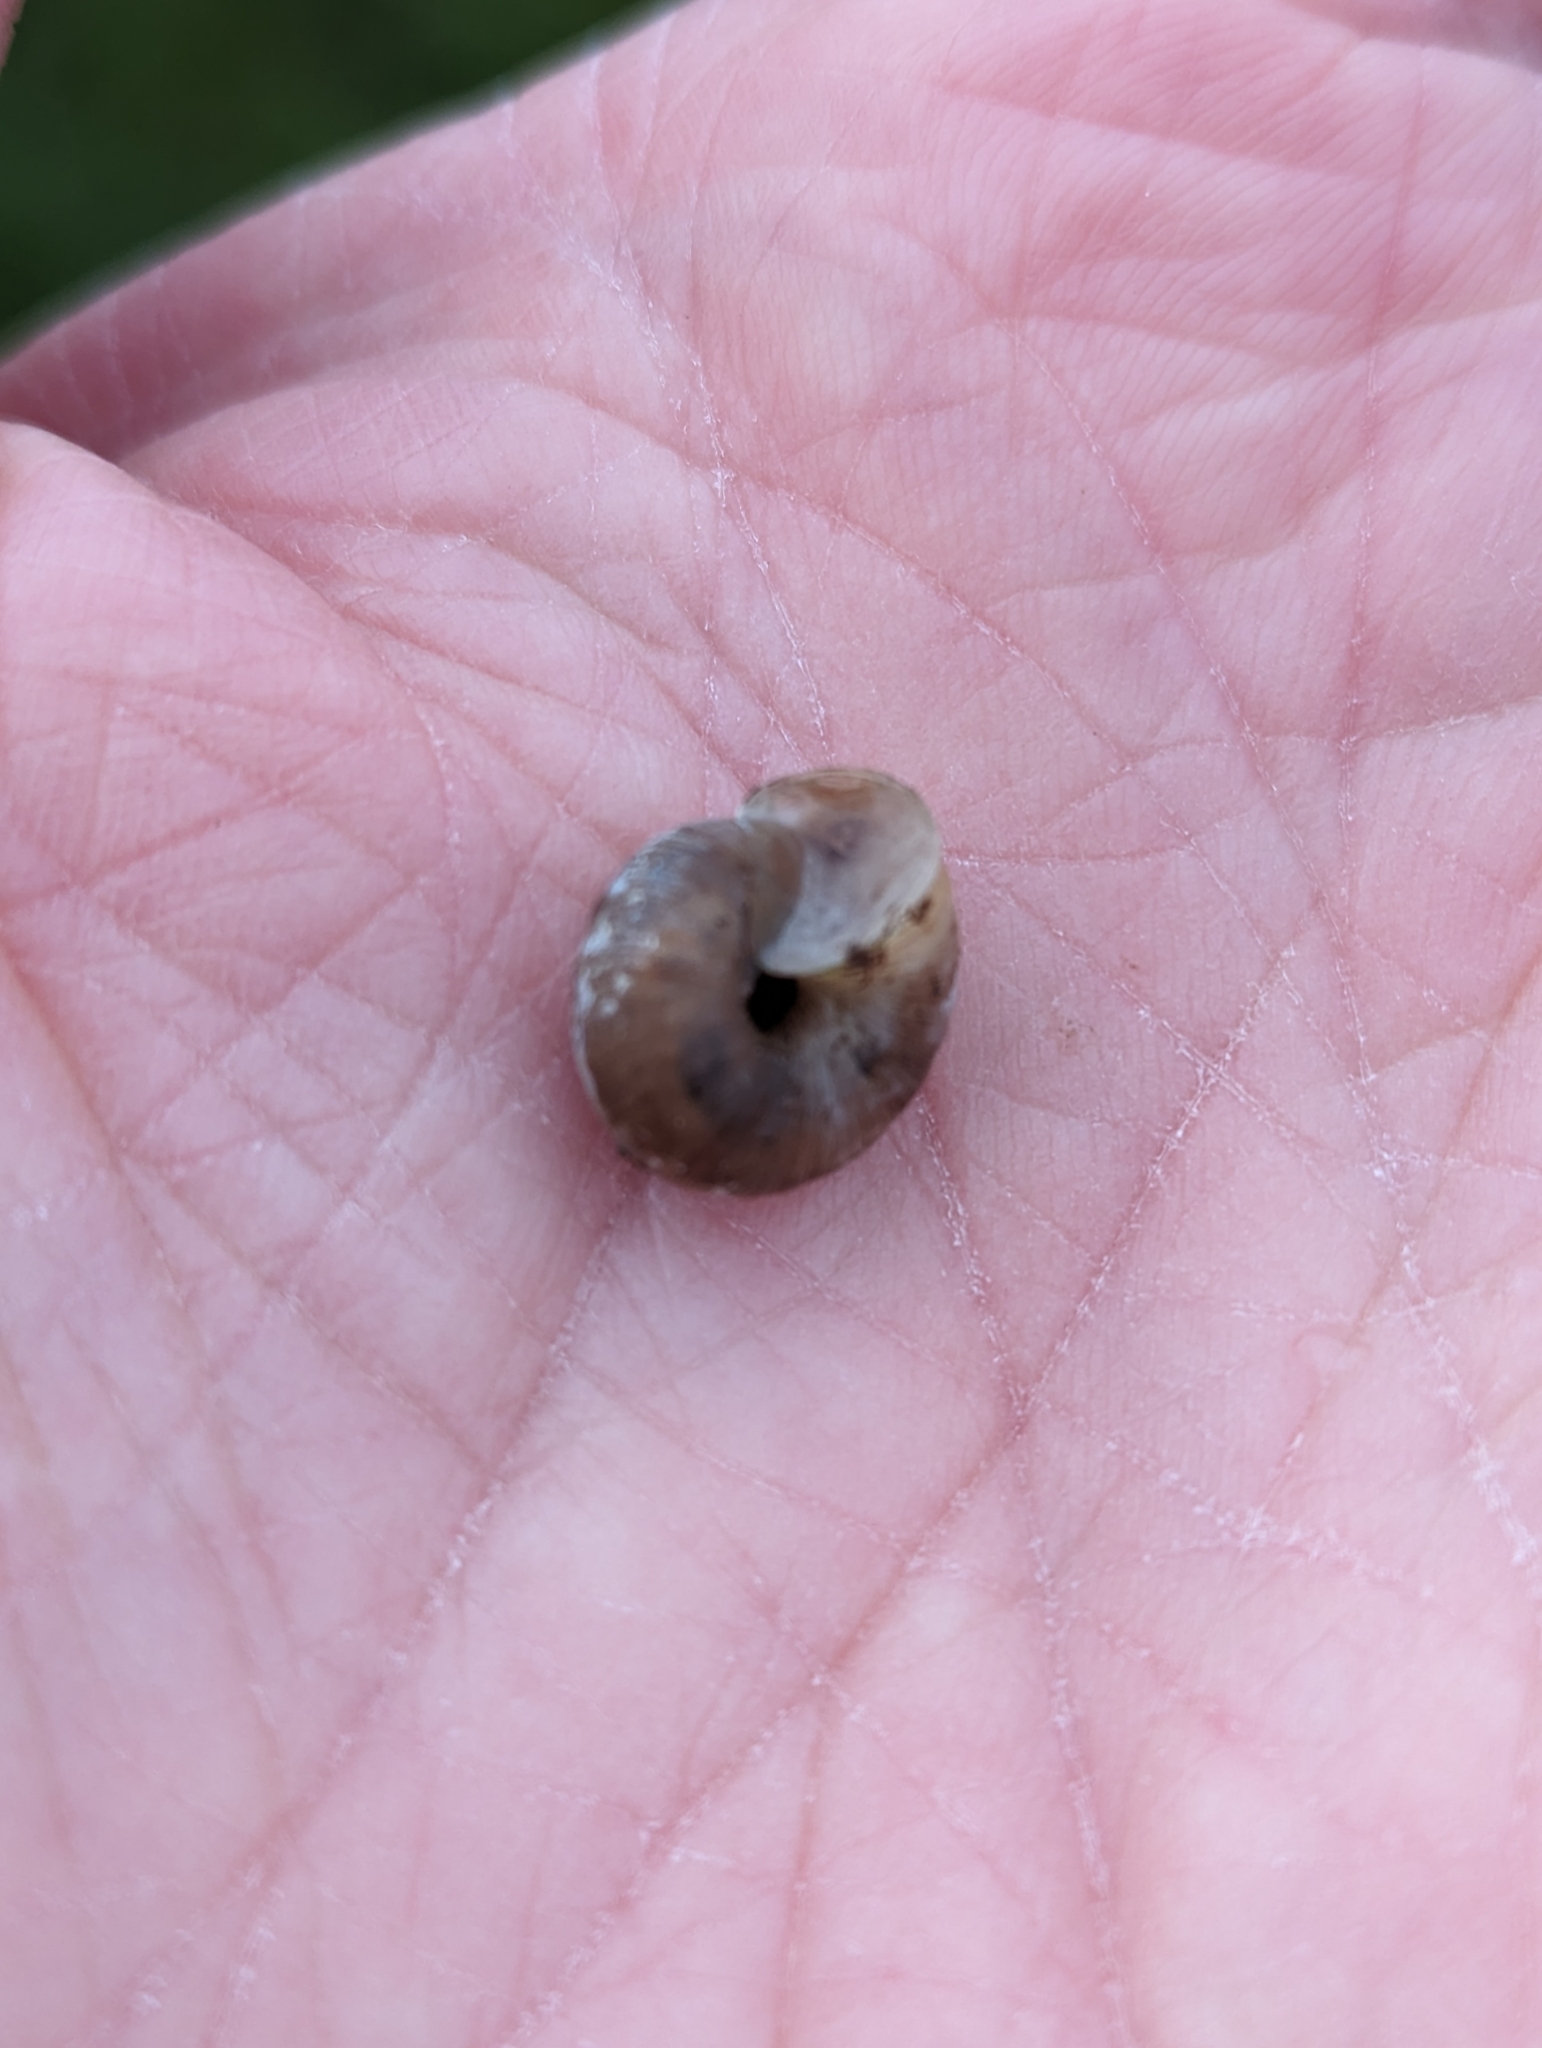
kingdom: Animalia
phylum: Mollusca
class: Gastropoda
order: Stylommatophora
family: Hygromiidae
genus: Trochulus
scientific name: Trochulus striolatus
